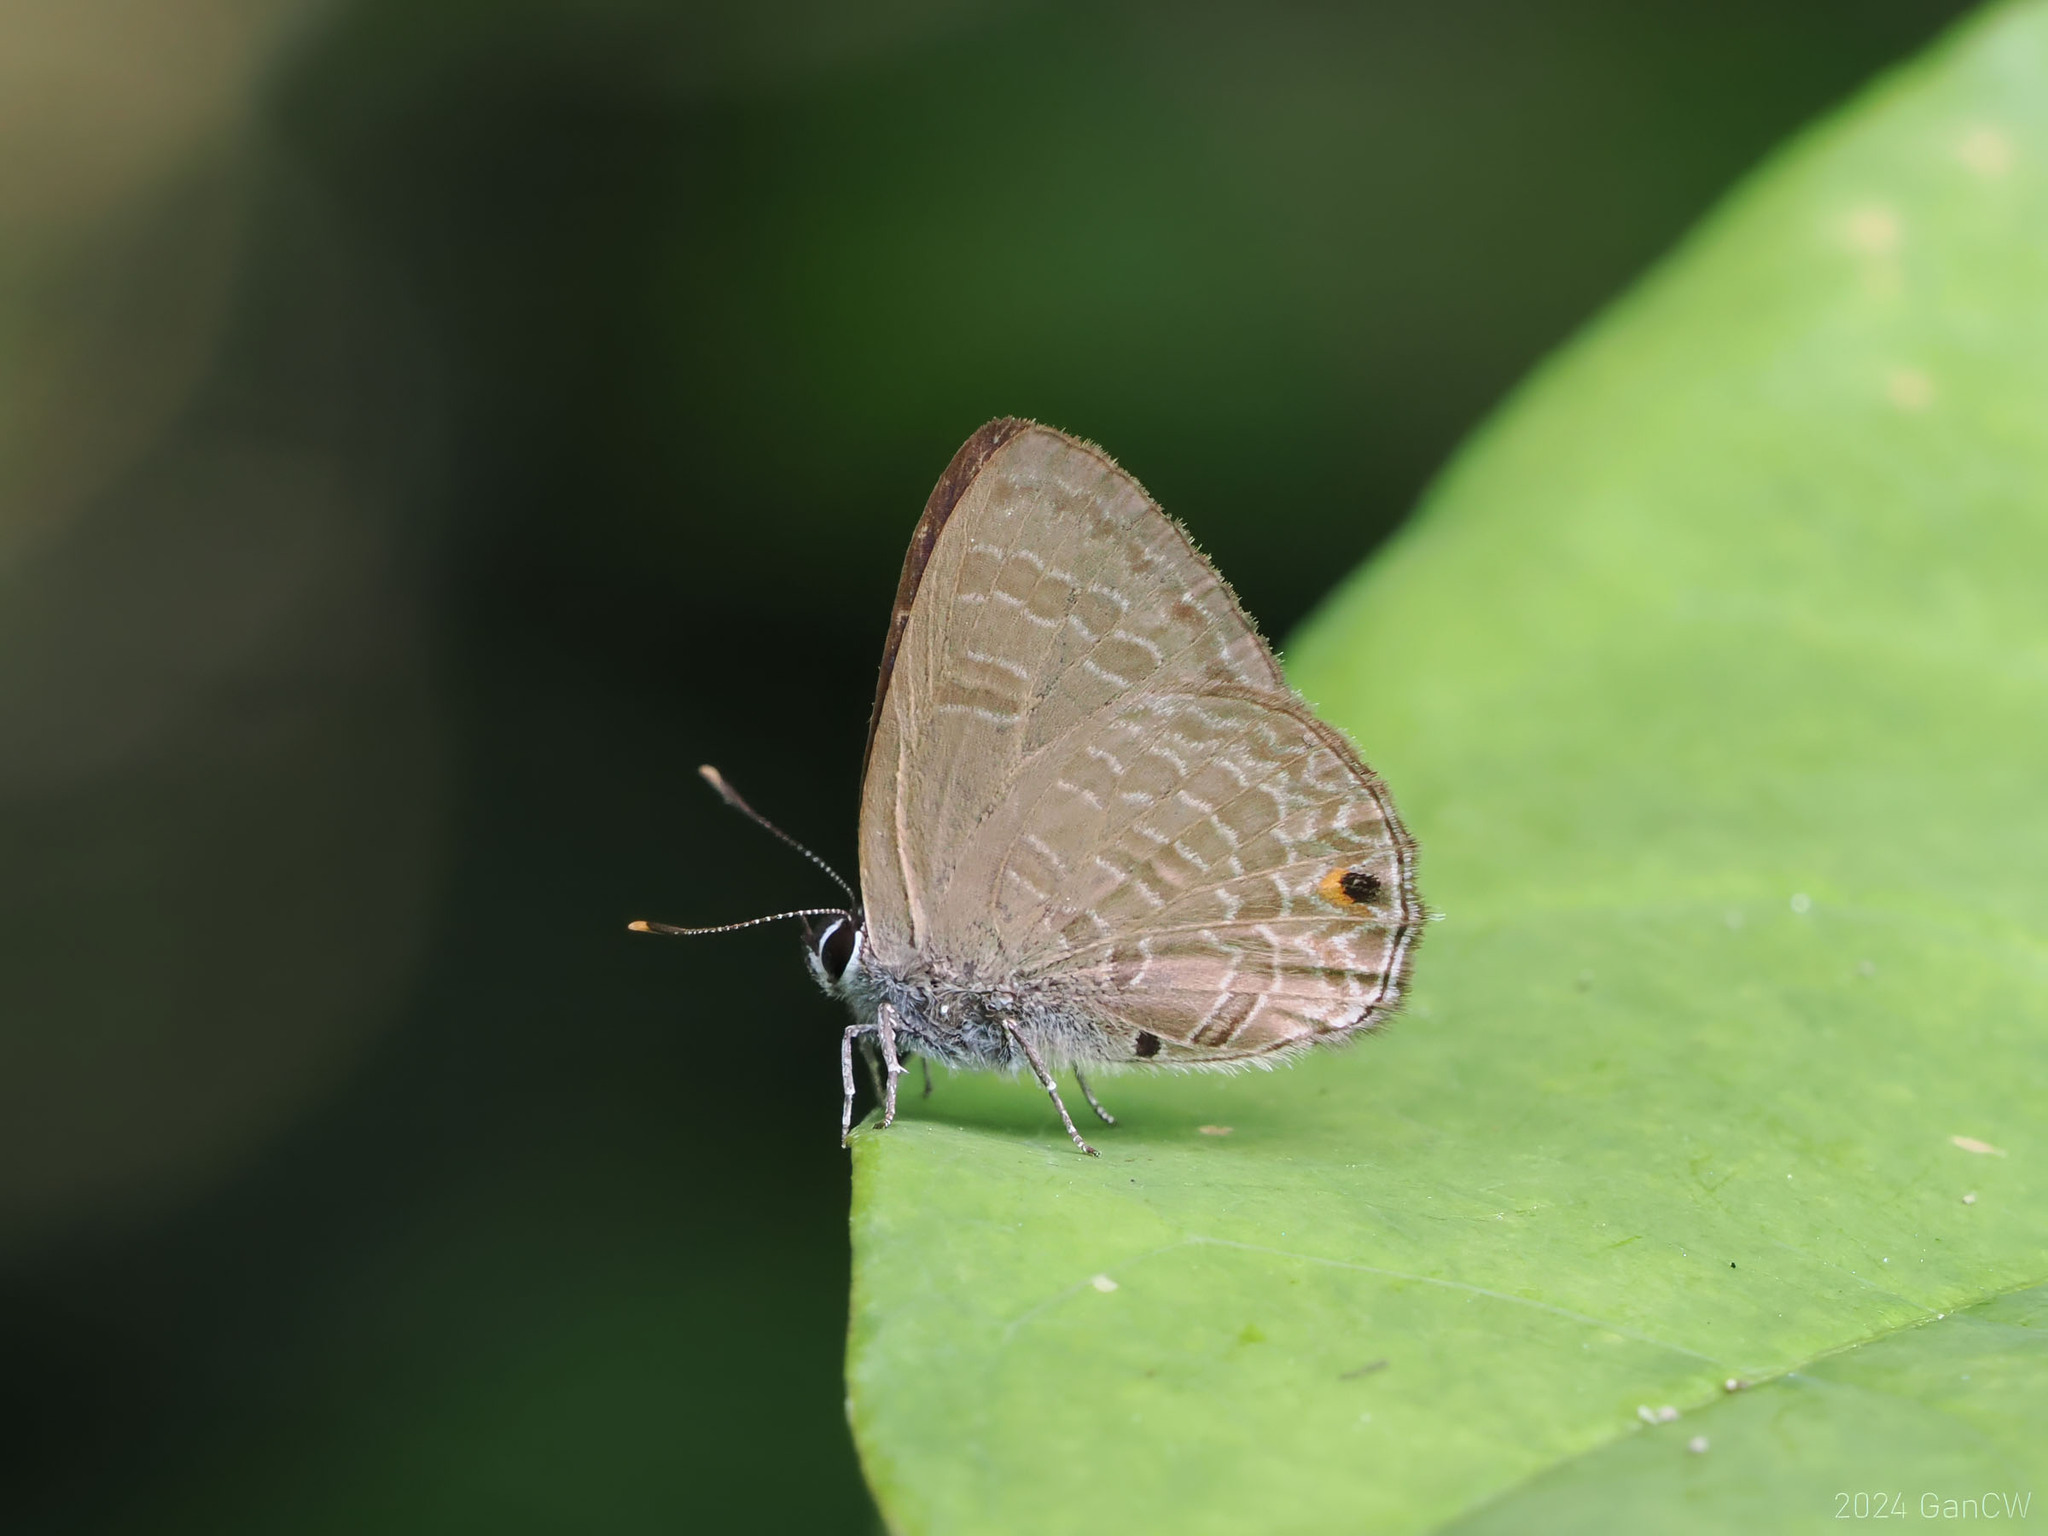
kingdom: Animalia
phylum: Arthropoda
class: Insecta
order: Lepidoptera
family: Lycaenidae
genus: Anthene
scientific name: Anthene emolus
